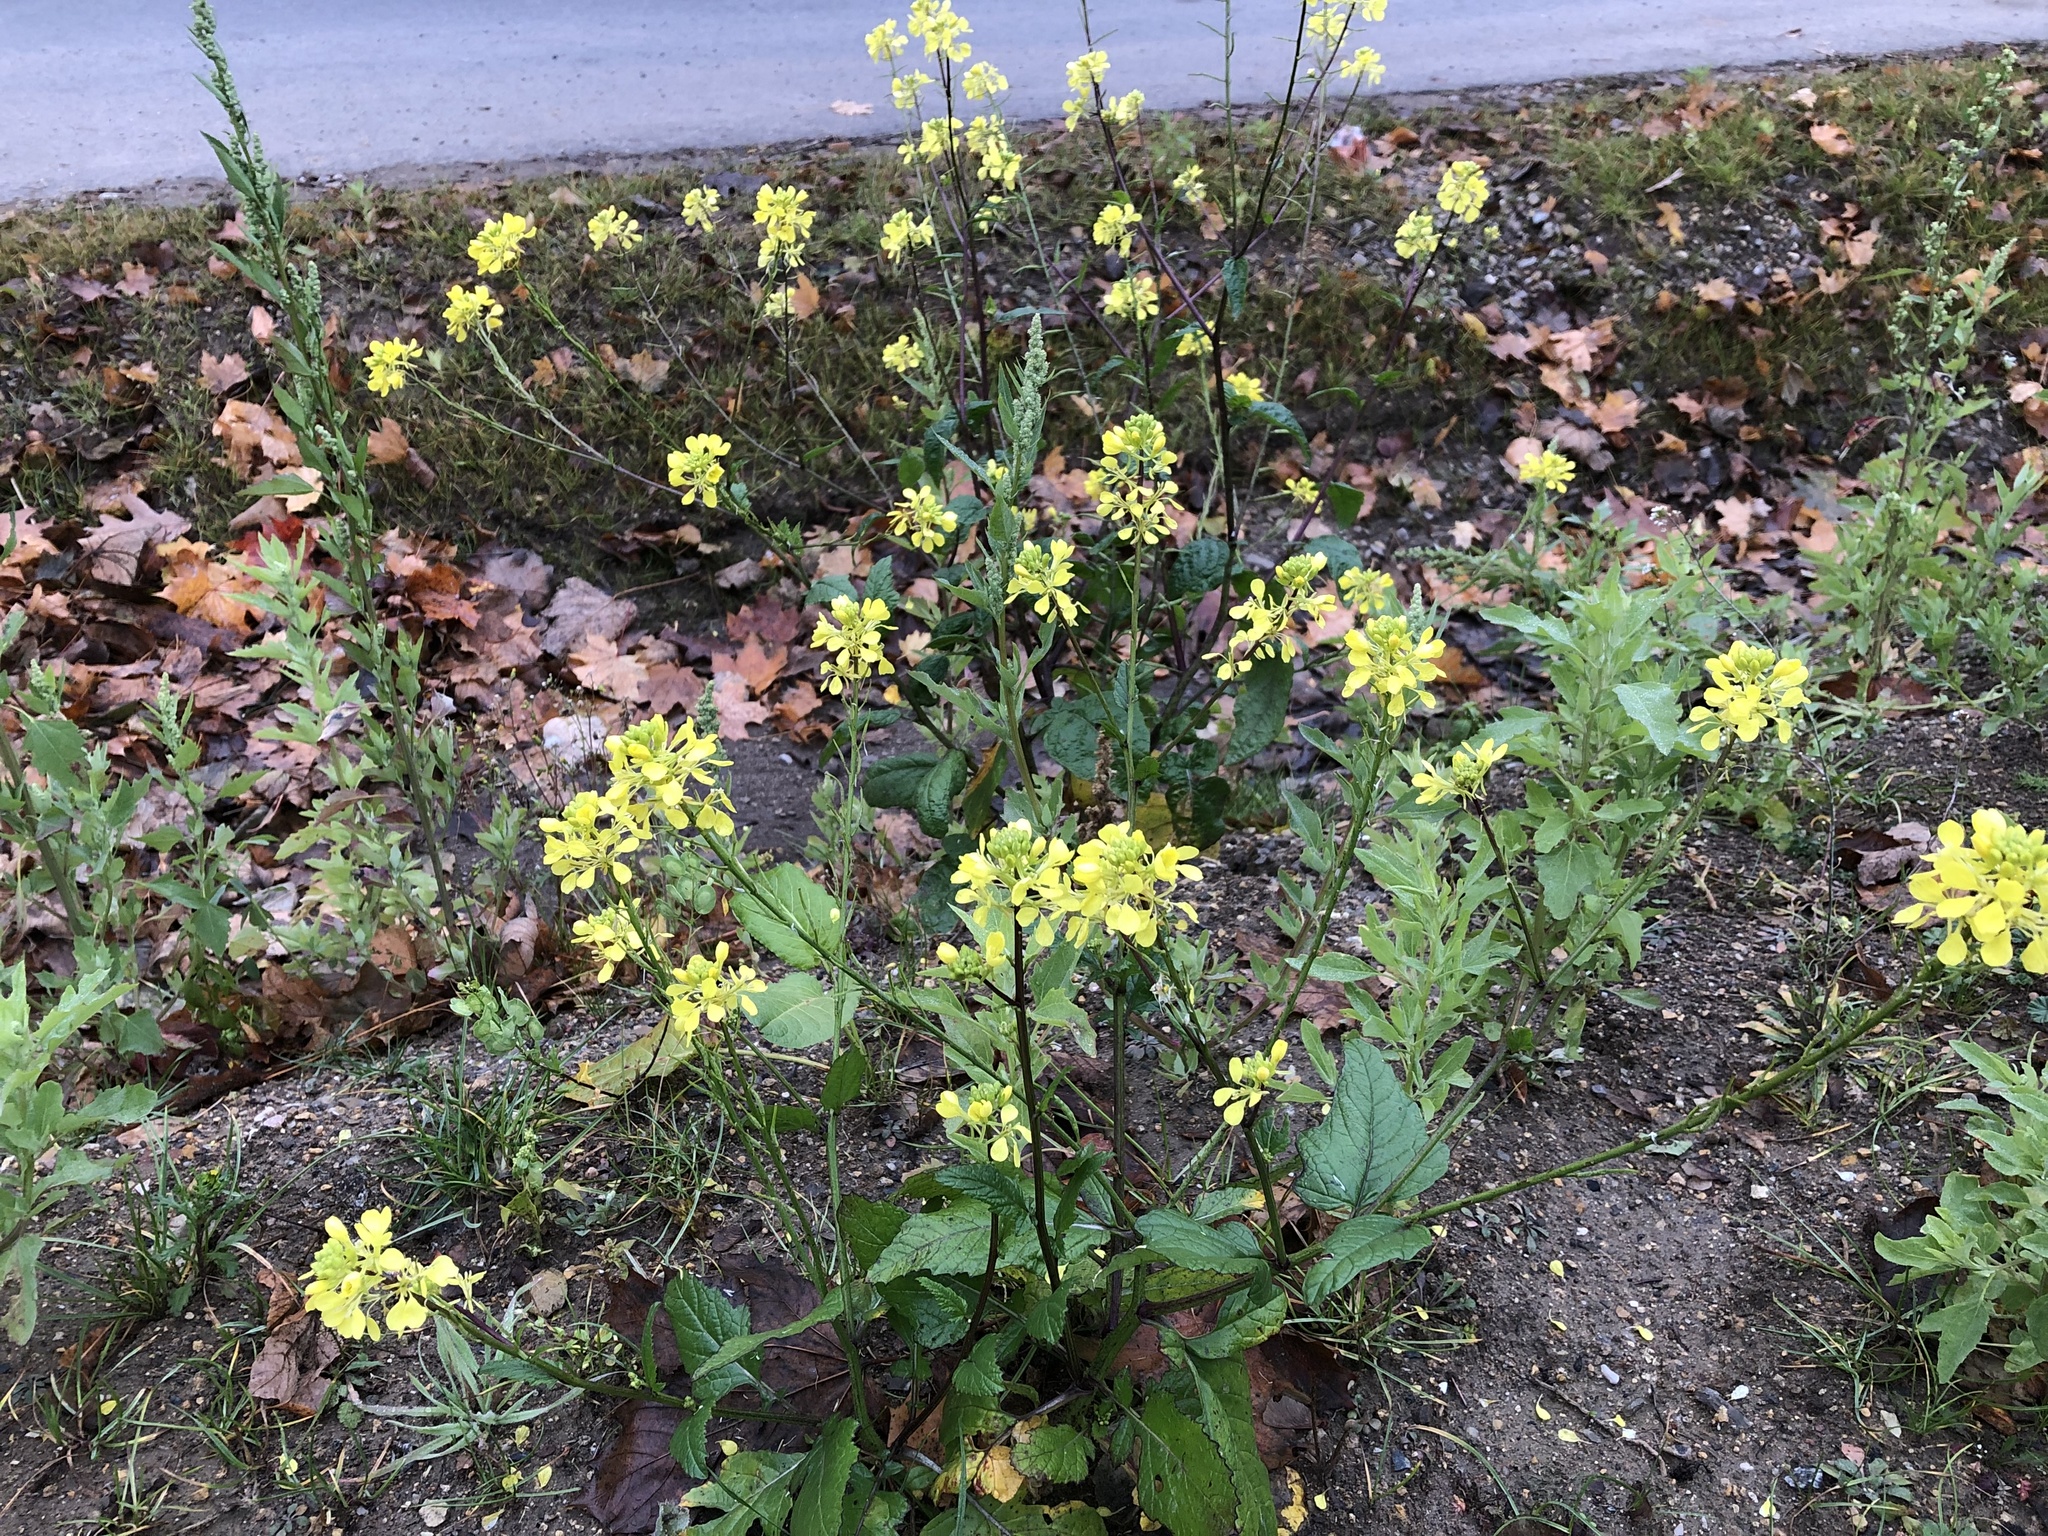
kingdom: Plantae
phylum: Tracheophyta
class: Magnoliopsida
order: Brassicales
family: Brassicaceae
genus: Sinapis
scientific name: Sinapis arvensis
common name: Charlock
